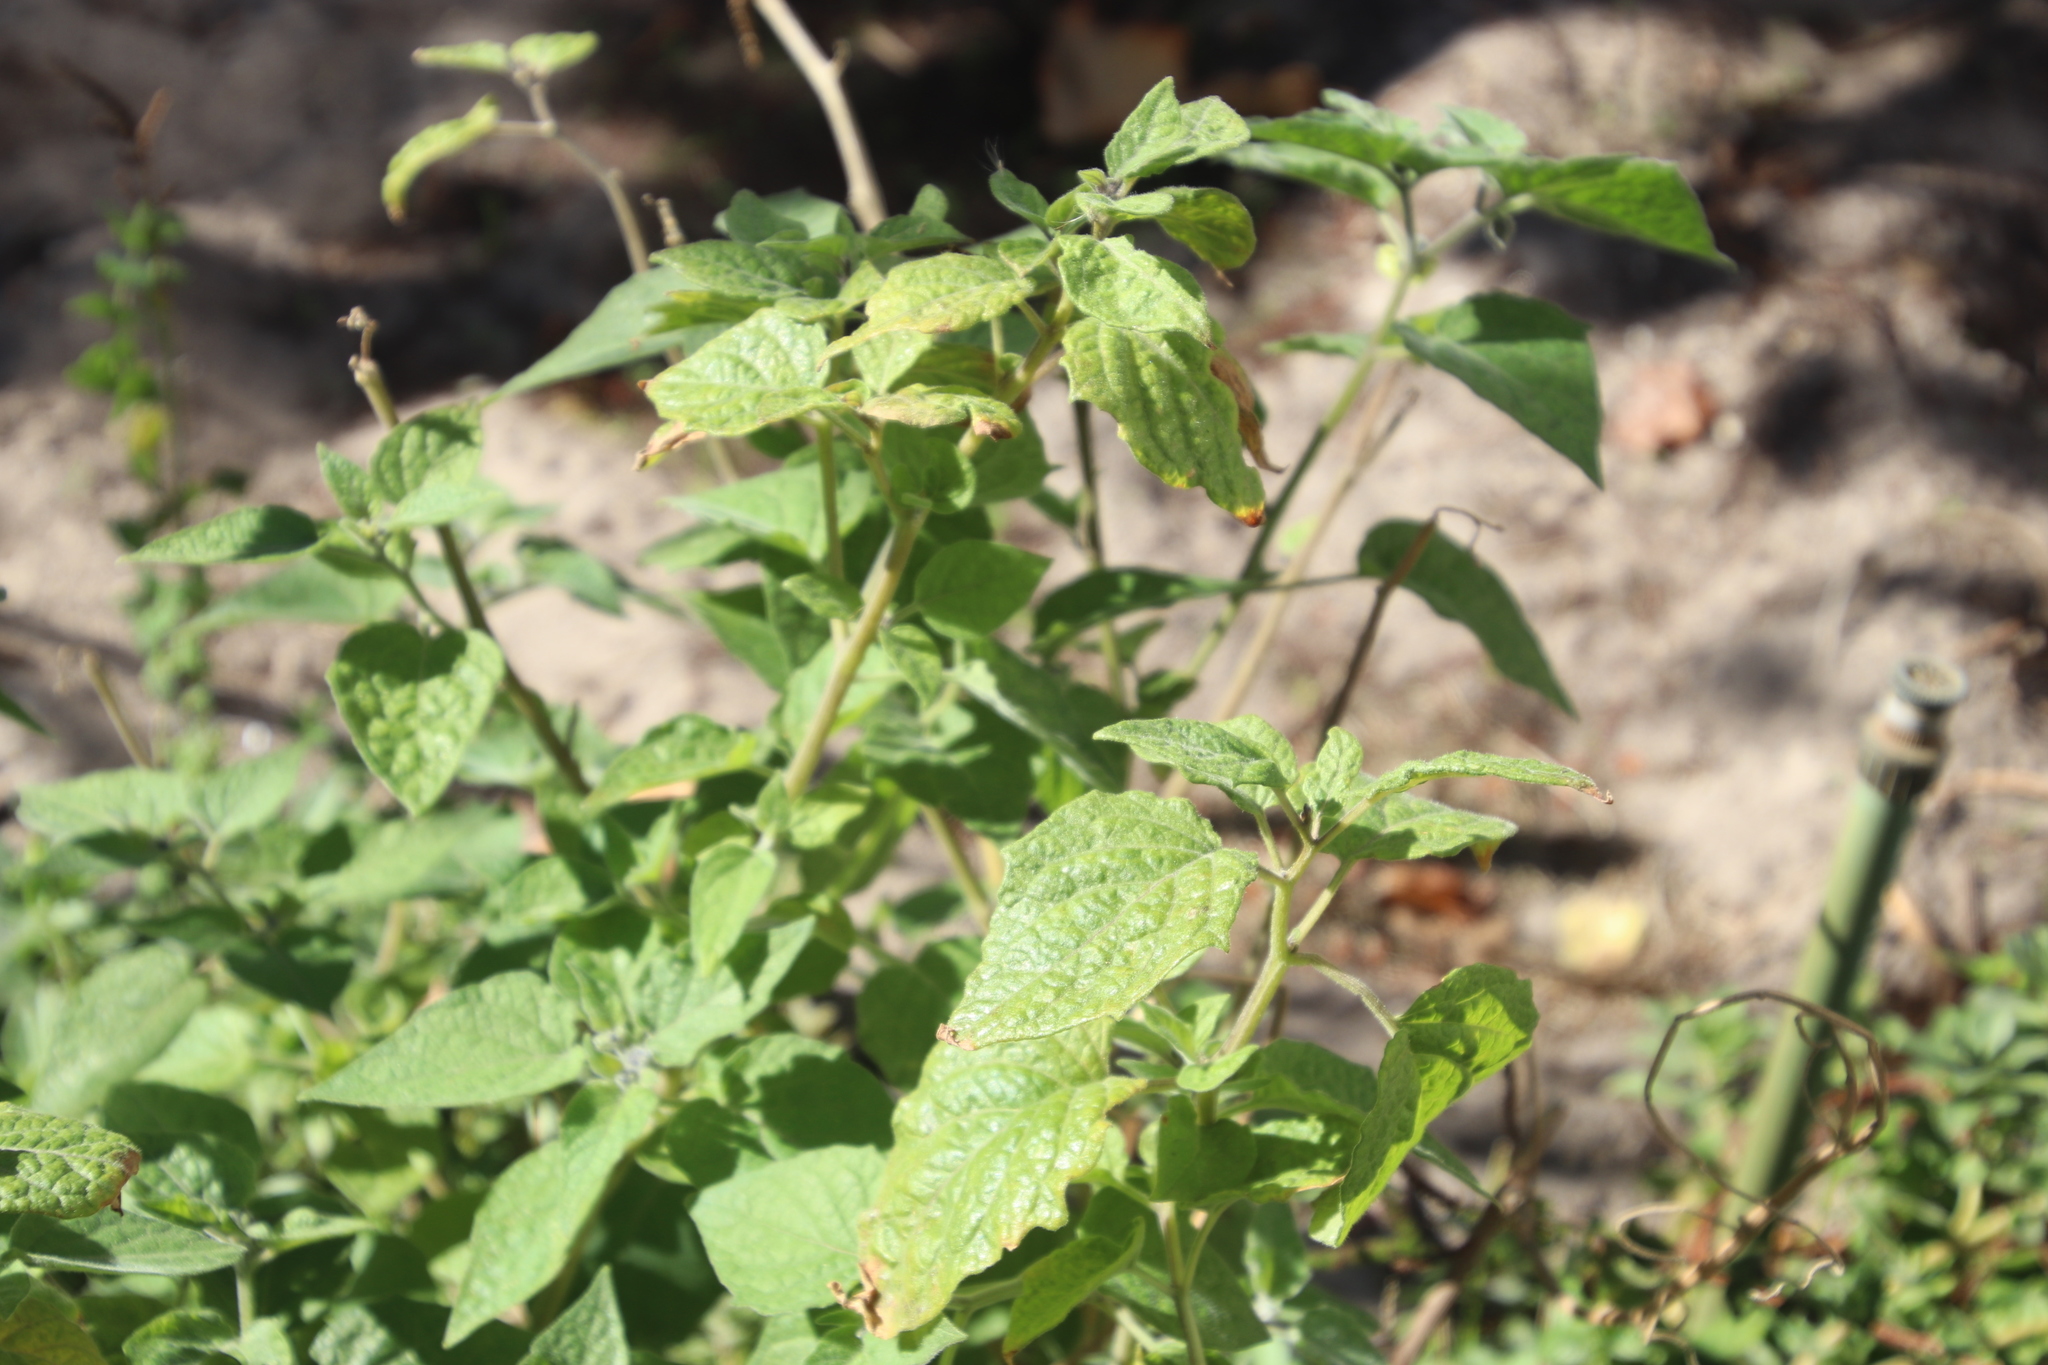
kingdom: Plantae
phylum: Tracheophyta
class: Magnoliopsida
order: Solanales
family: Solanaceae
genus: Physalis
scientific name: Physalis peruviana
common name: Cape-gooseberry
